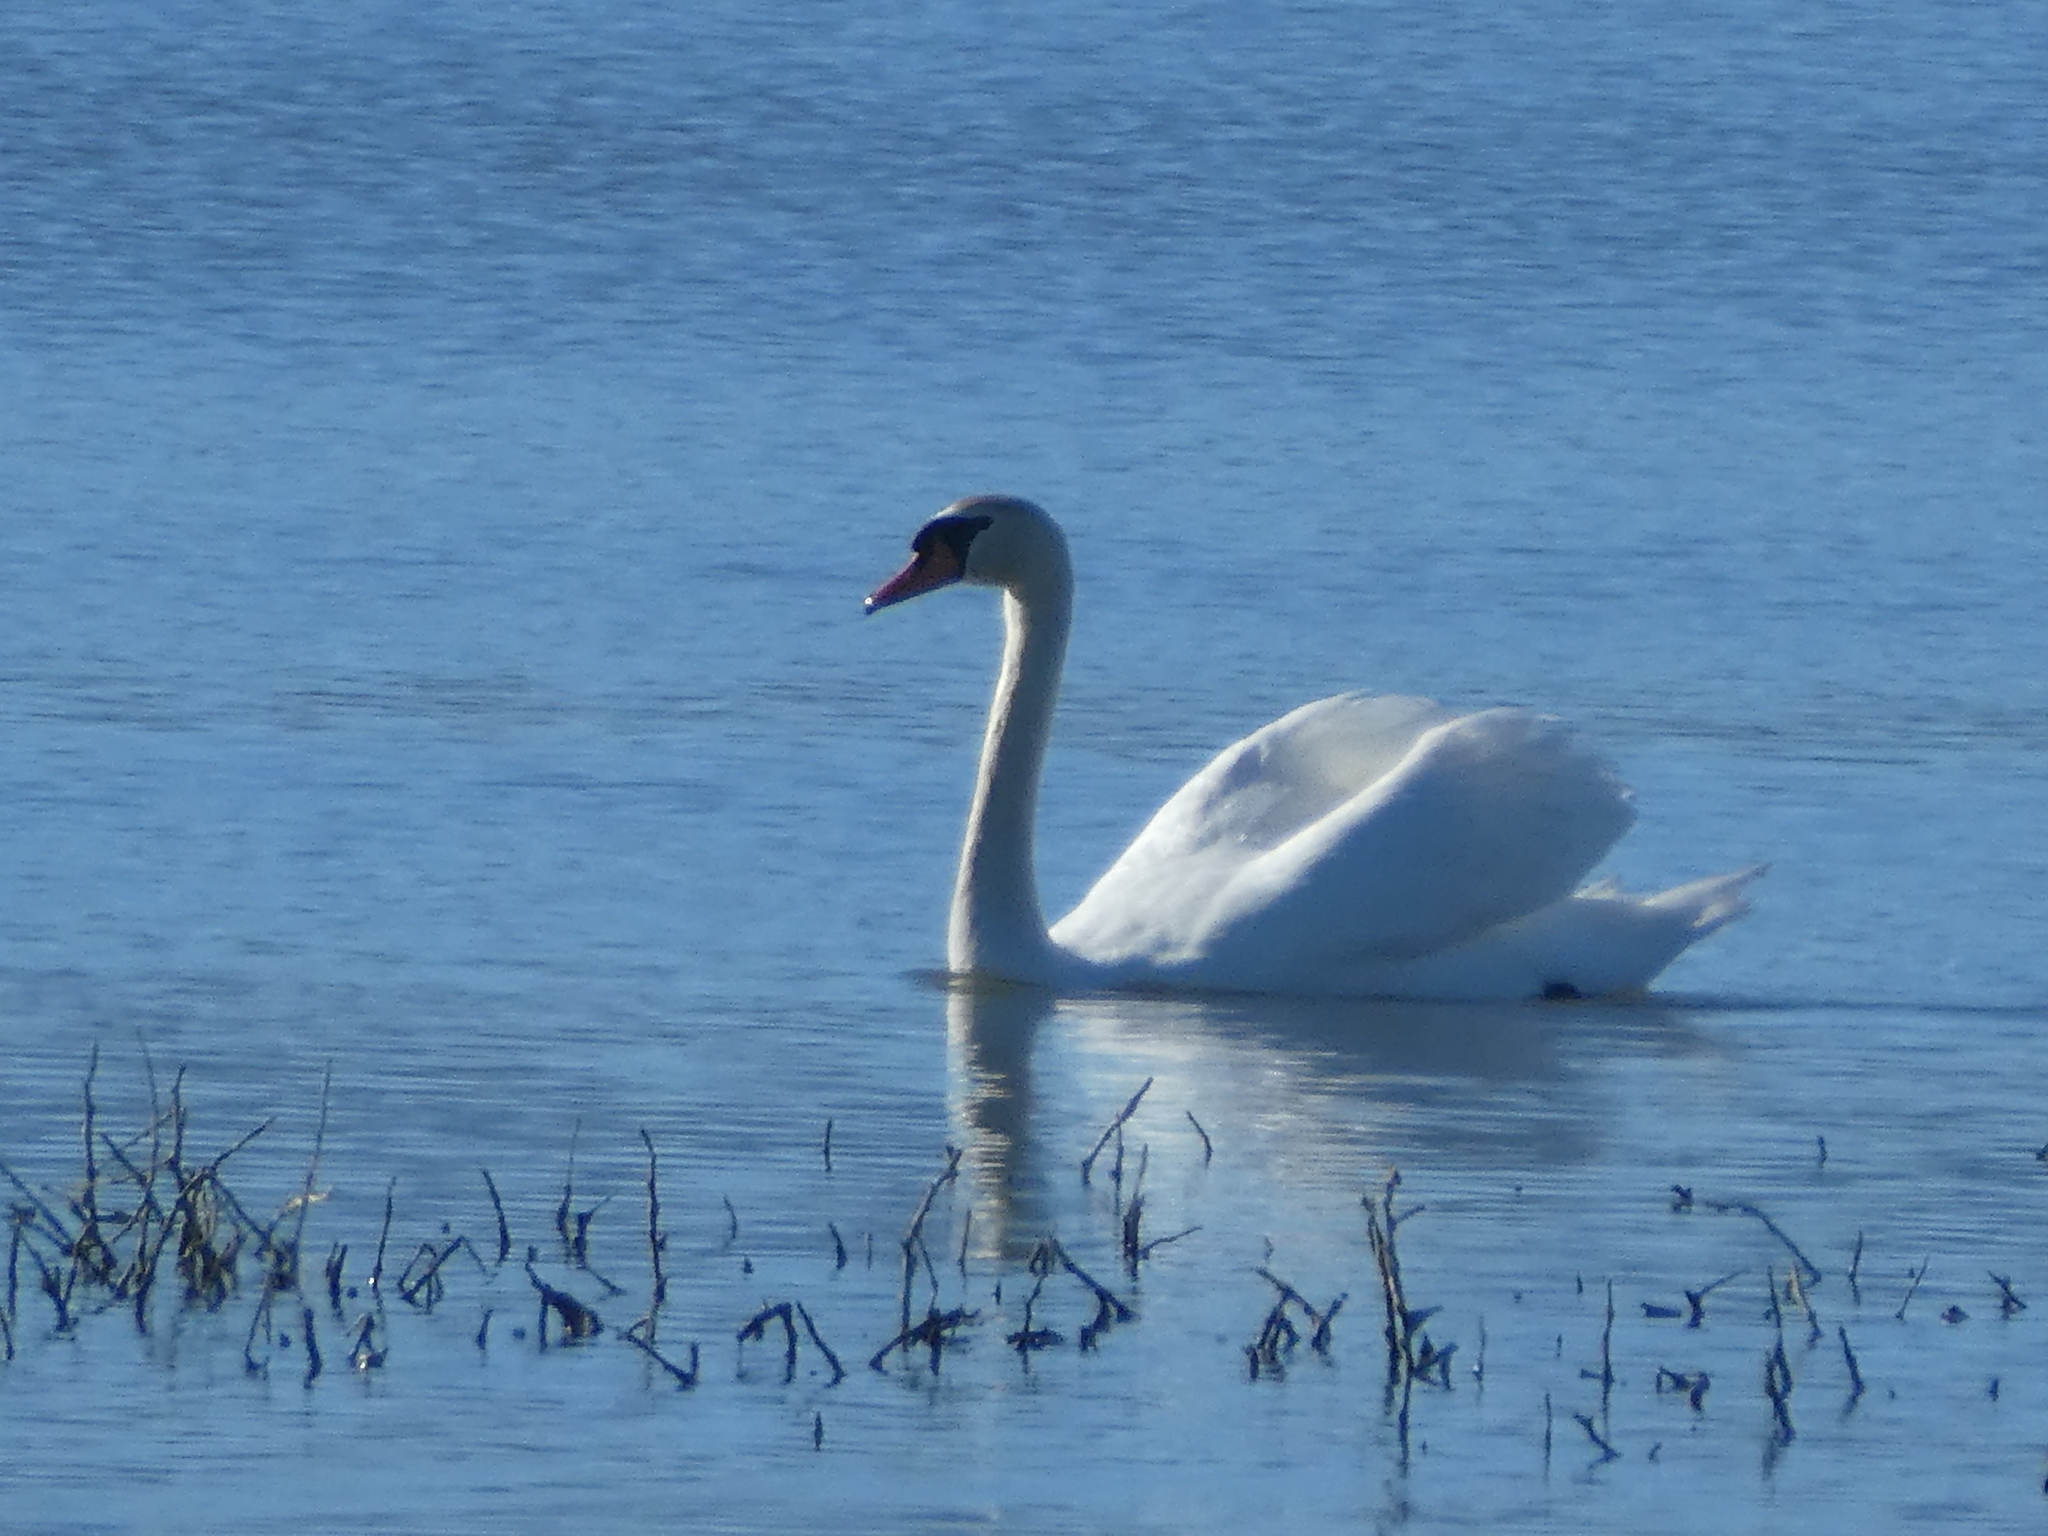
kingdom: Animalia
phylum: Chordata
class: Aves
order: Anseriformes
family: Anatidae
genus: Cygnus
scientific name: Cygnus olor
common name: Mute swan
